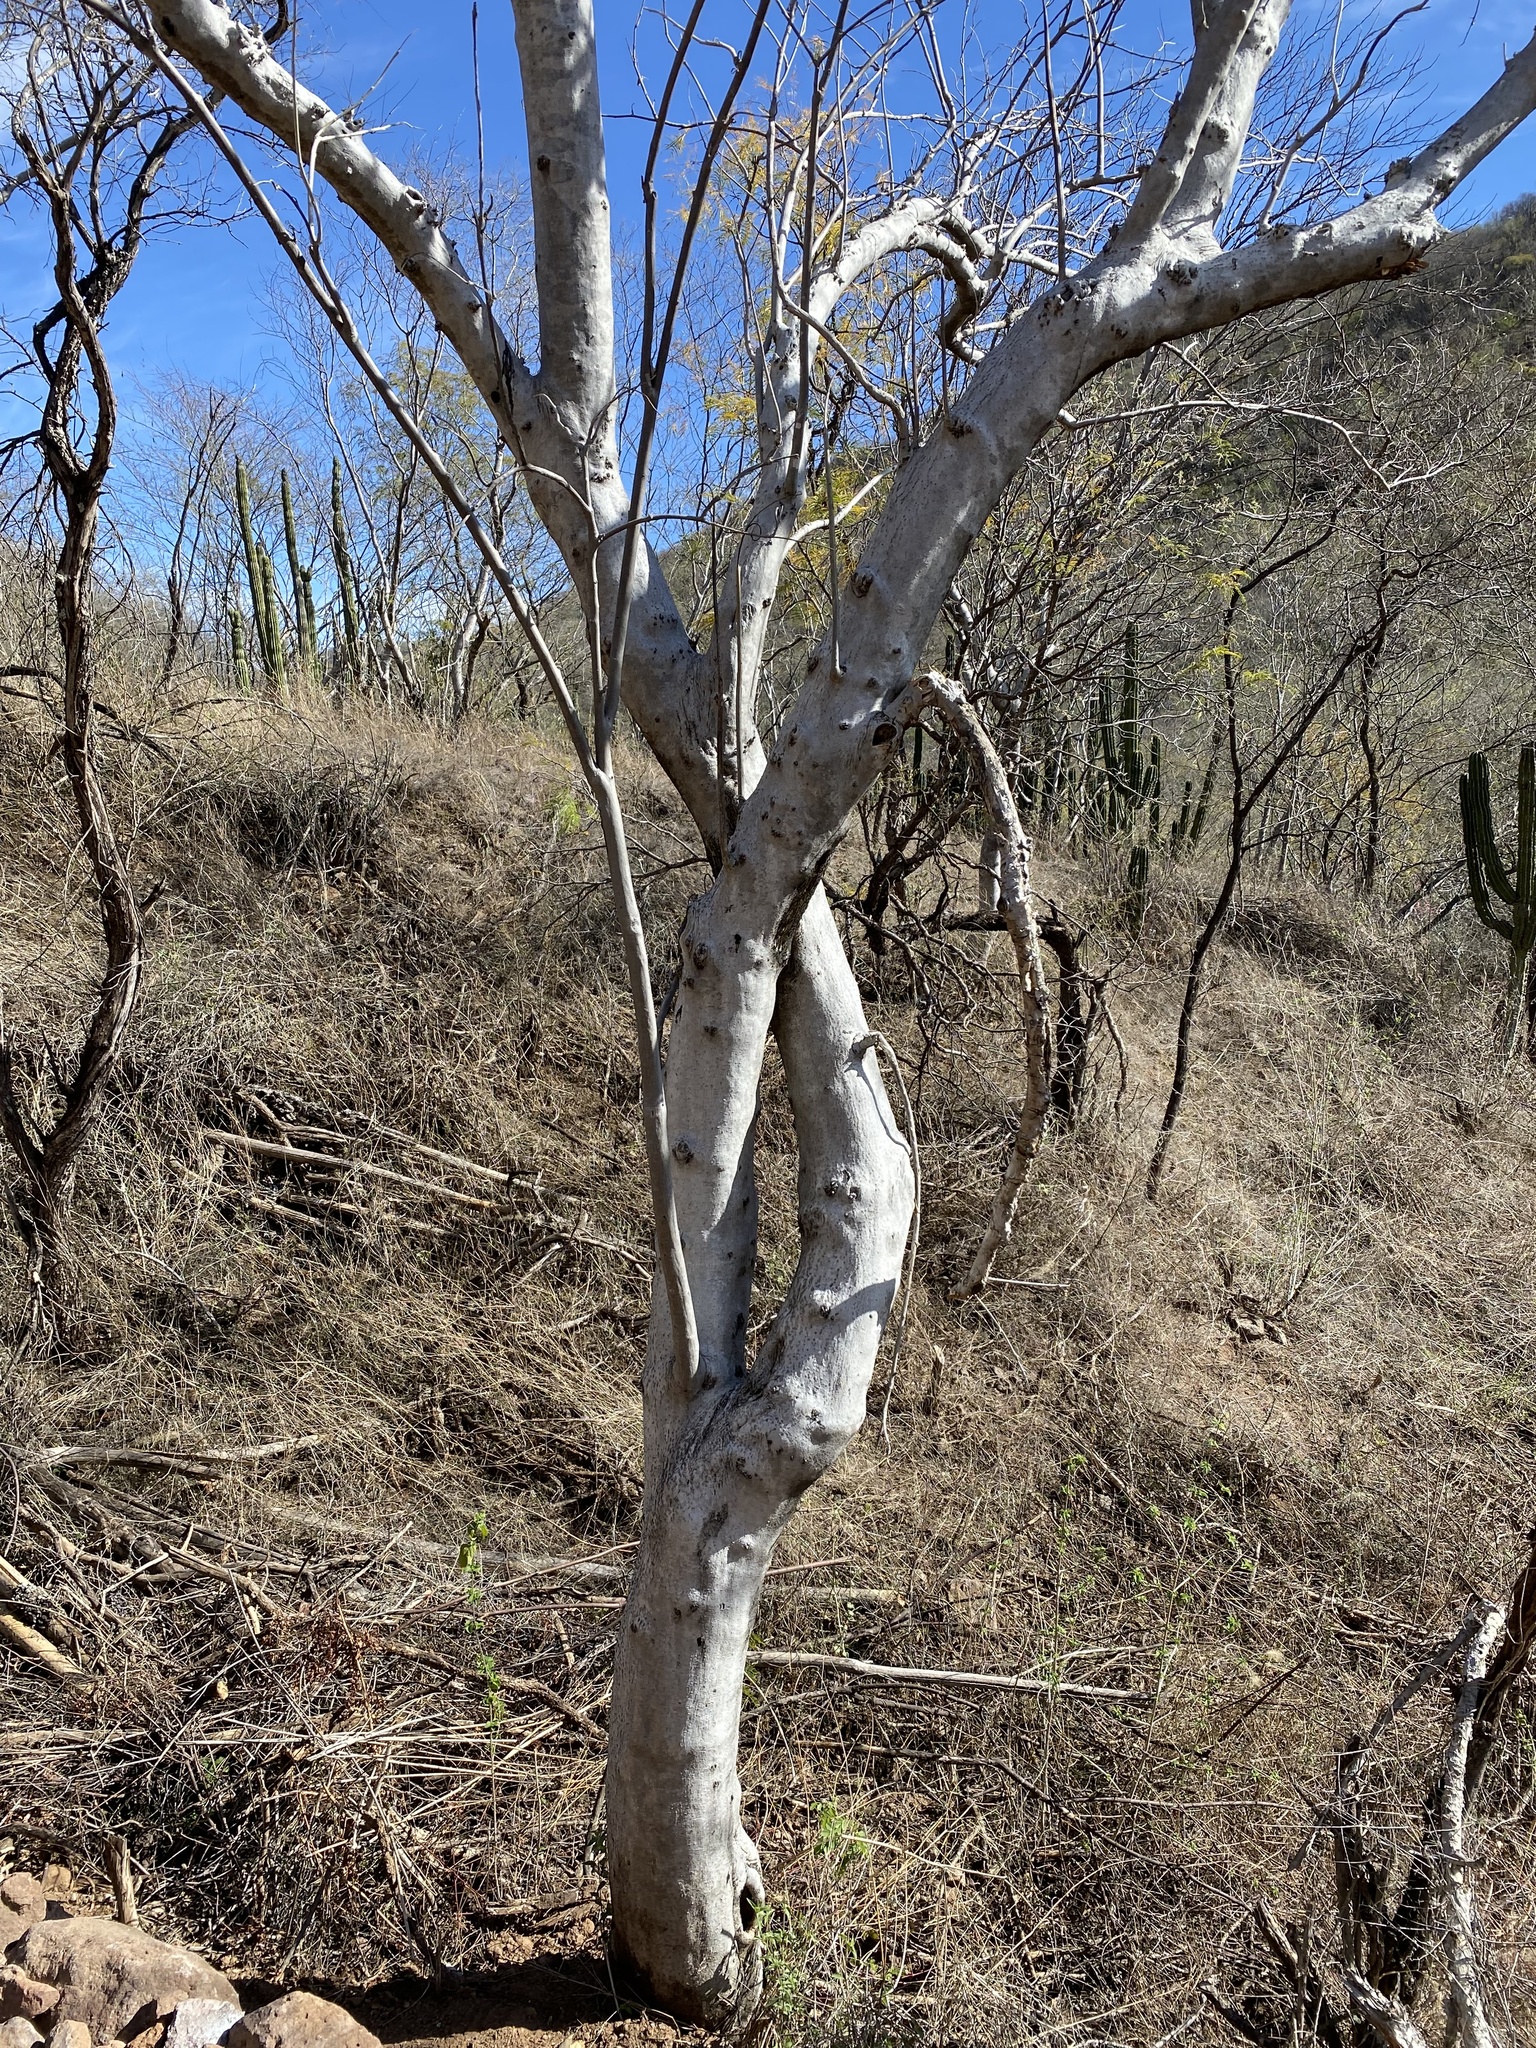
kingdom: Plantae
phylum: Tracheophyta
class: Magnoliopsida
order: Solanales
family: Convolvulaceae
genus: Ipomoea
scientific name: Ipomoea arborescens
